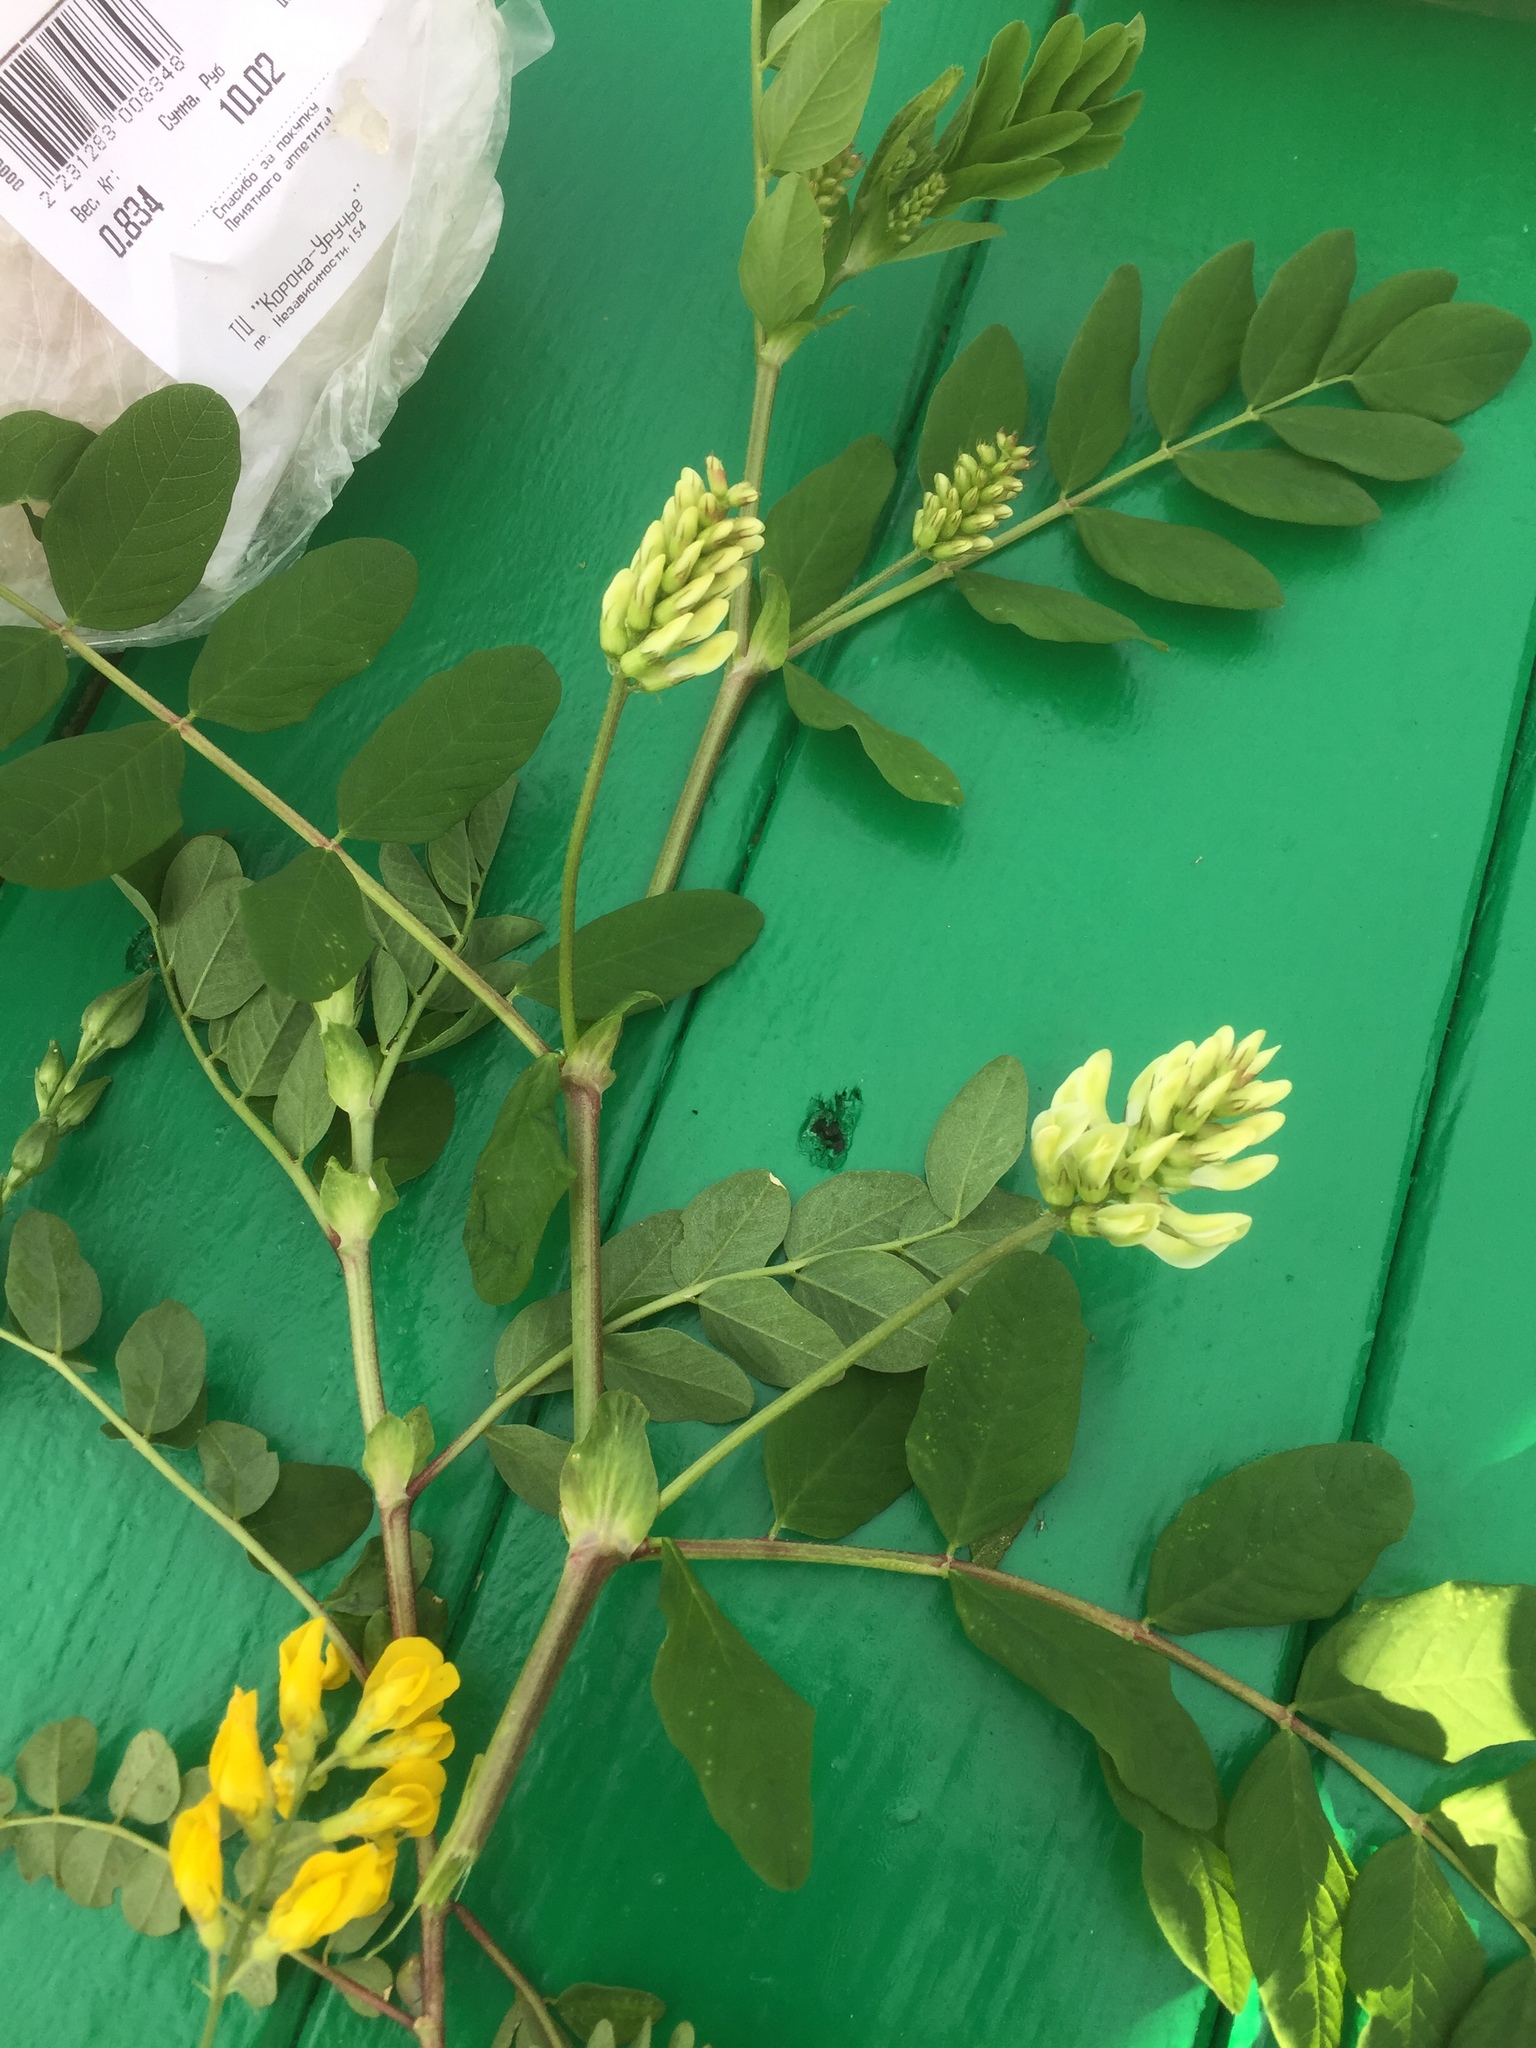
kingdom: Plantae
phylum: Tracheophyta
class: Magnoliopsida
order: Fabales
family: Fabaceae
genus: Astragalus
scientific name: Astragalus glycyphyllos
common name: Wild liquorice
